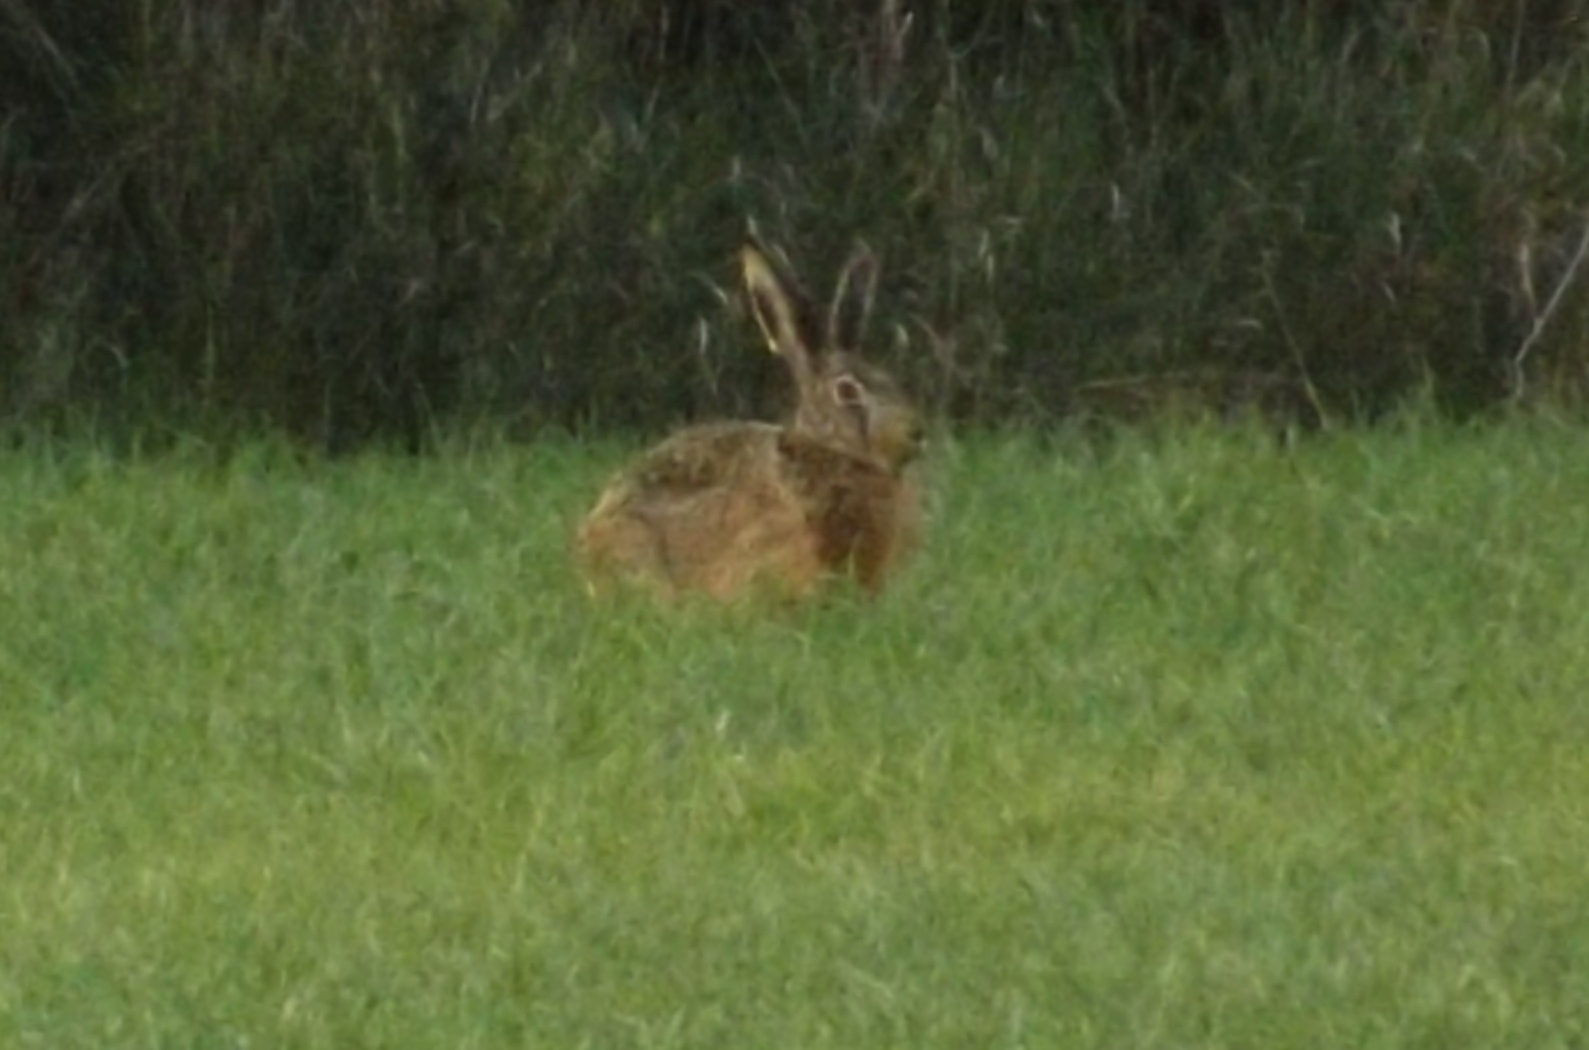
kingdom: Animalia
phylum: Chordata
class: Mammalia
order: Lagomorpha
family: Leporidae
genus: Lepus
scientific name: Lepus europaeus
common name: European hare
